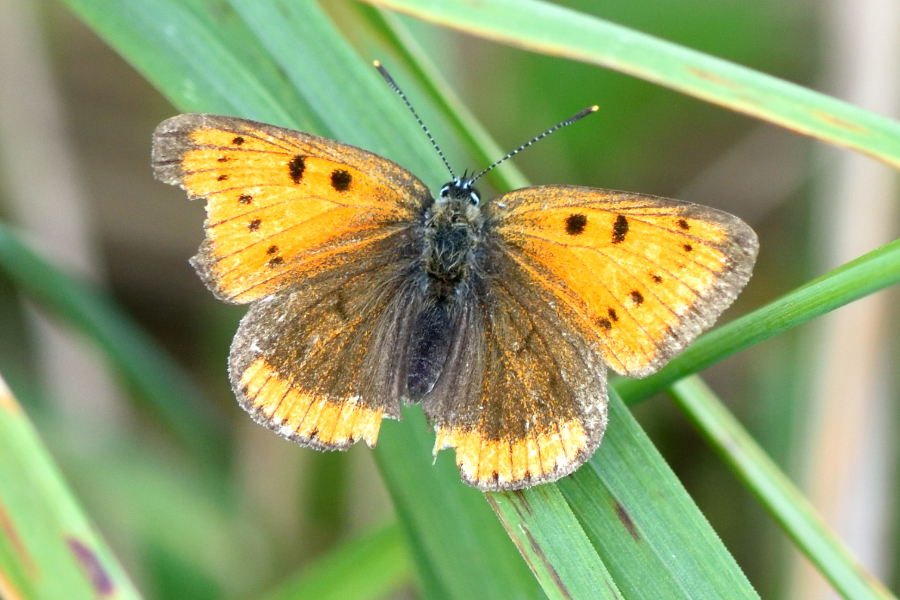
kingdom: Animalia
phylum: Arthropoda
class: Insecta
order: Lepidoptera
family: Lycaenidae
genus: Lycaena
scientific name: Lycaena dispar
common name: Large copper
